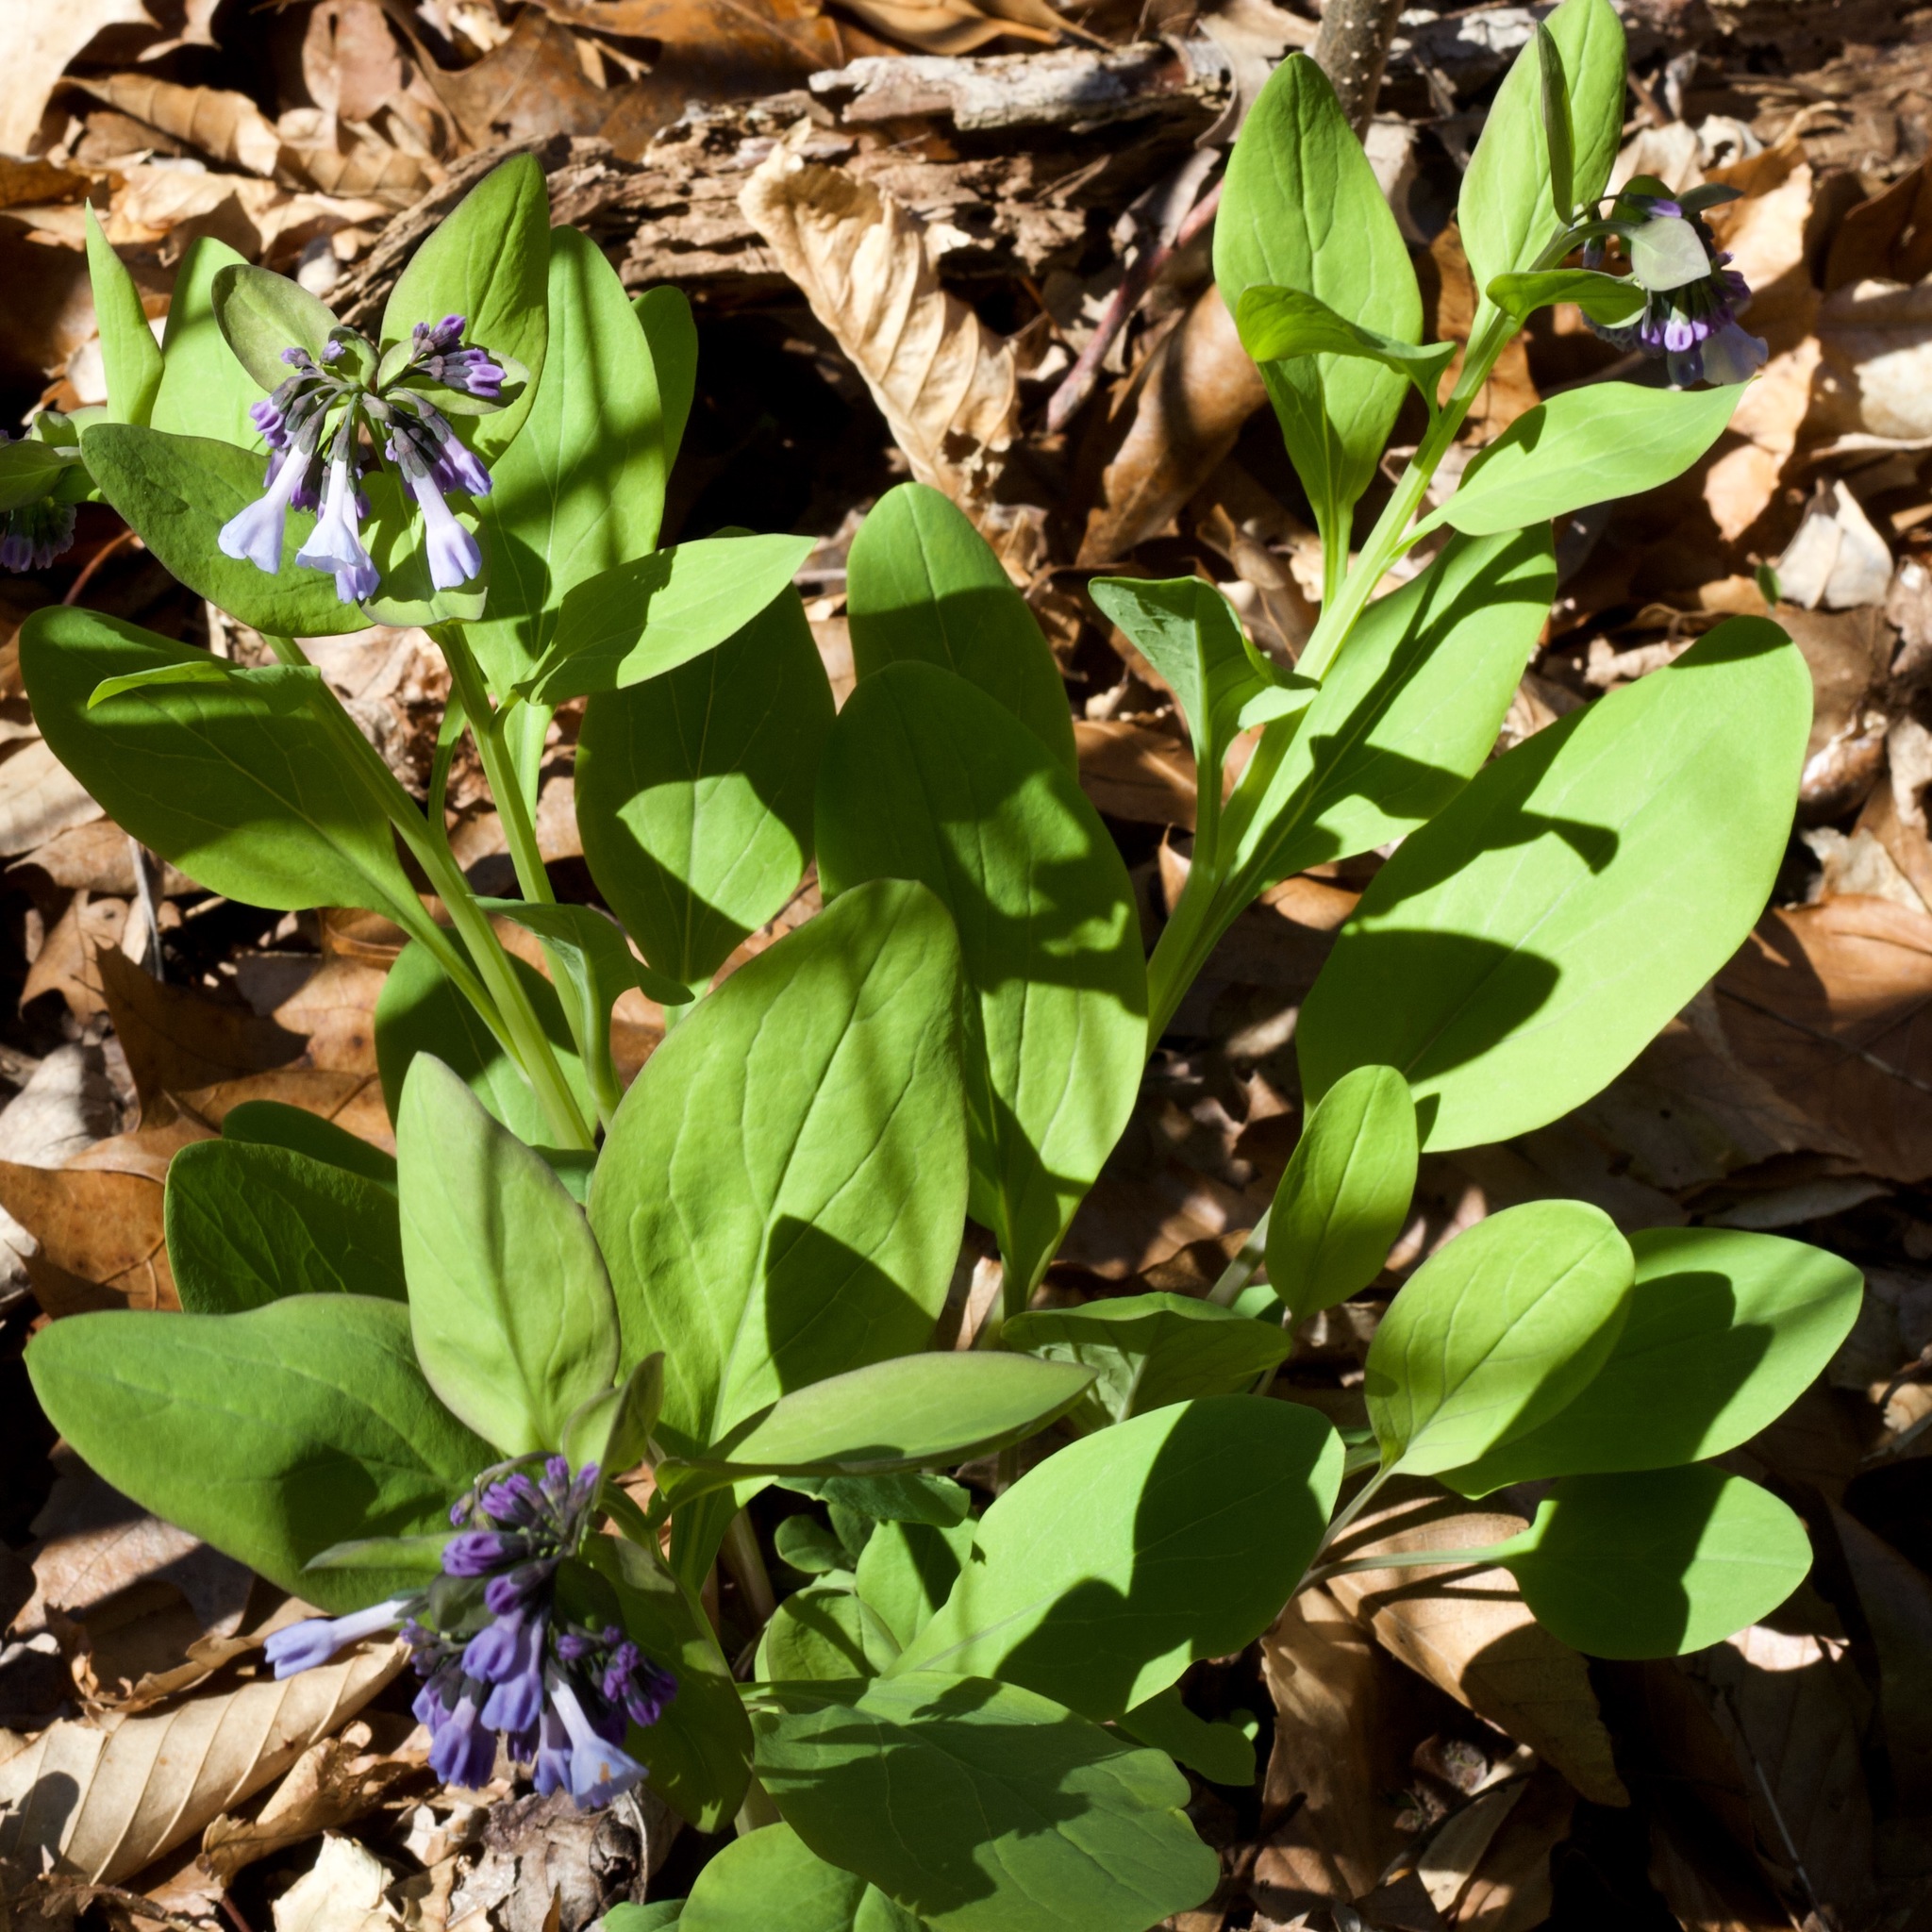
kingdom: Plantae
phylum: Tracheophyta
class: Magnoliopsida
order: Boraginales
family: Boraginaceae
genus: Mertensia
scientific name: Mertensia virginica
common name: Virginia bluebells
